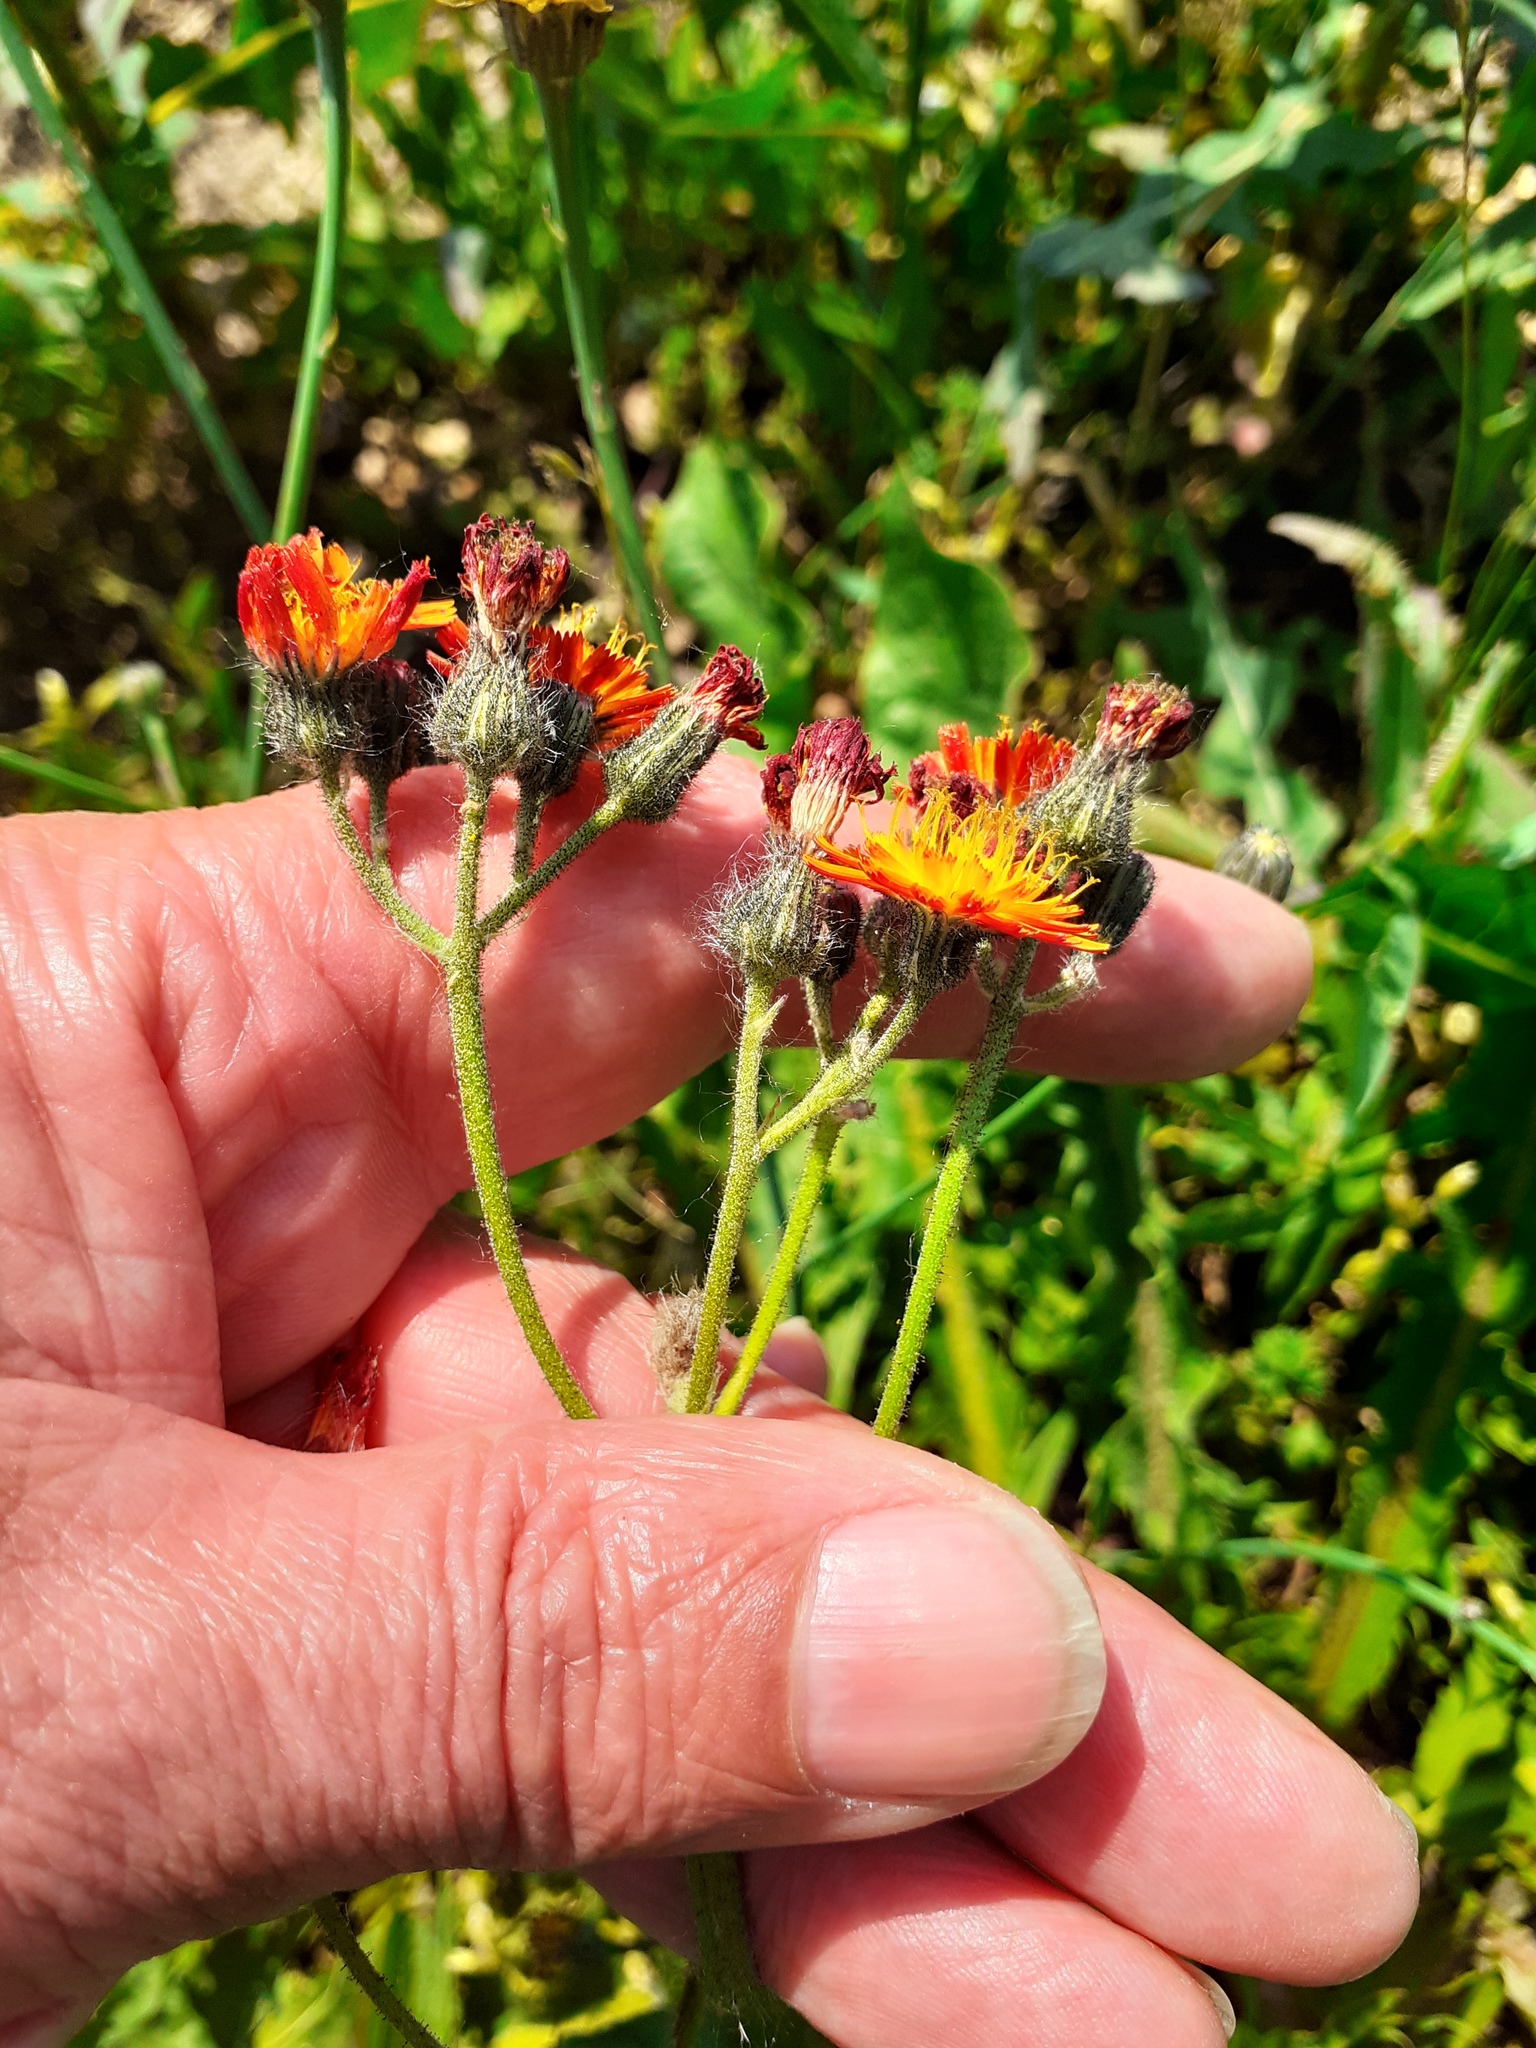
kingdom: Plantae
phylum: Tracheophyta
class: Magnoliopsida
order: Asterales
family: Asteraceae
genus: Pilosella
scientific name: Pilosella aurantiaca
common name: Fox-and-cubs
